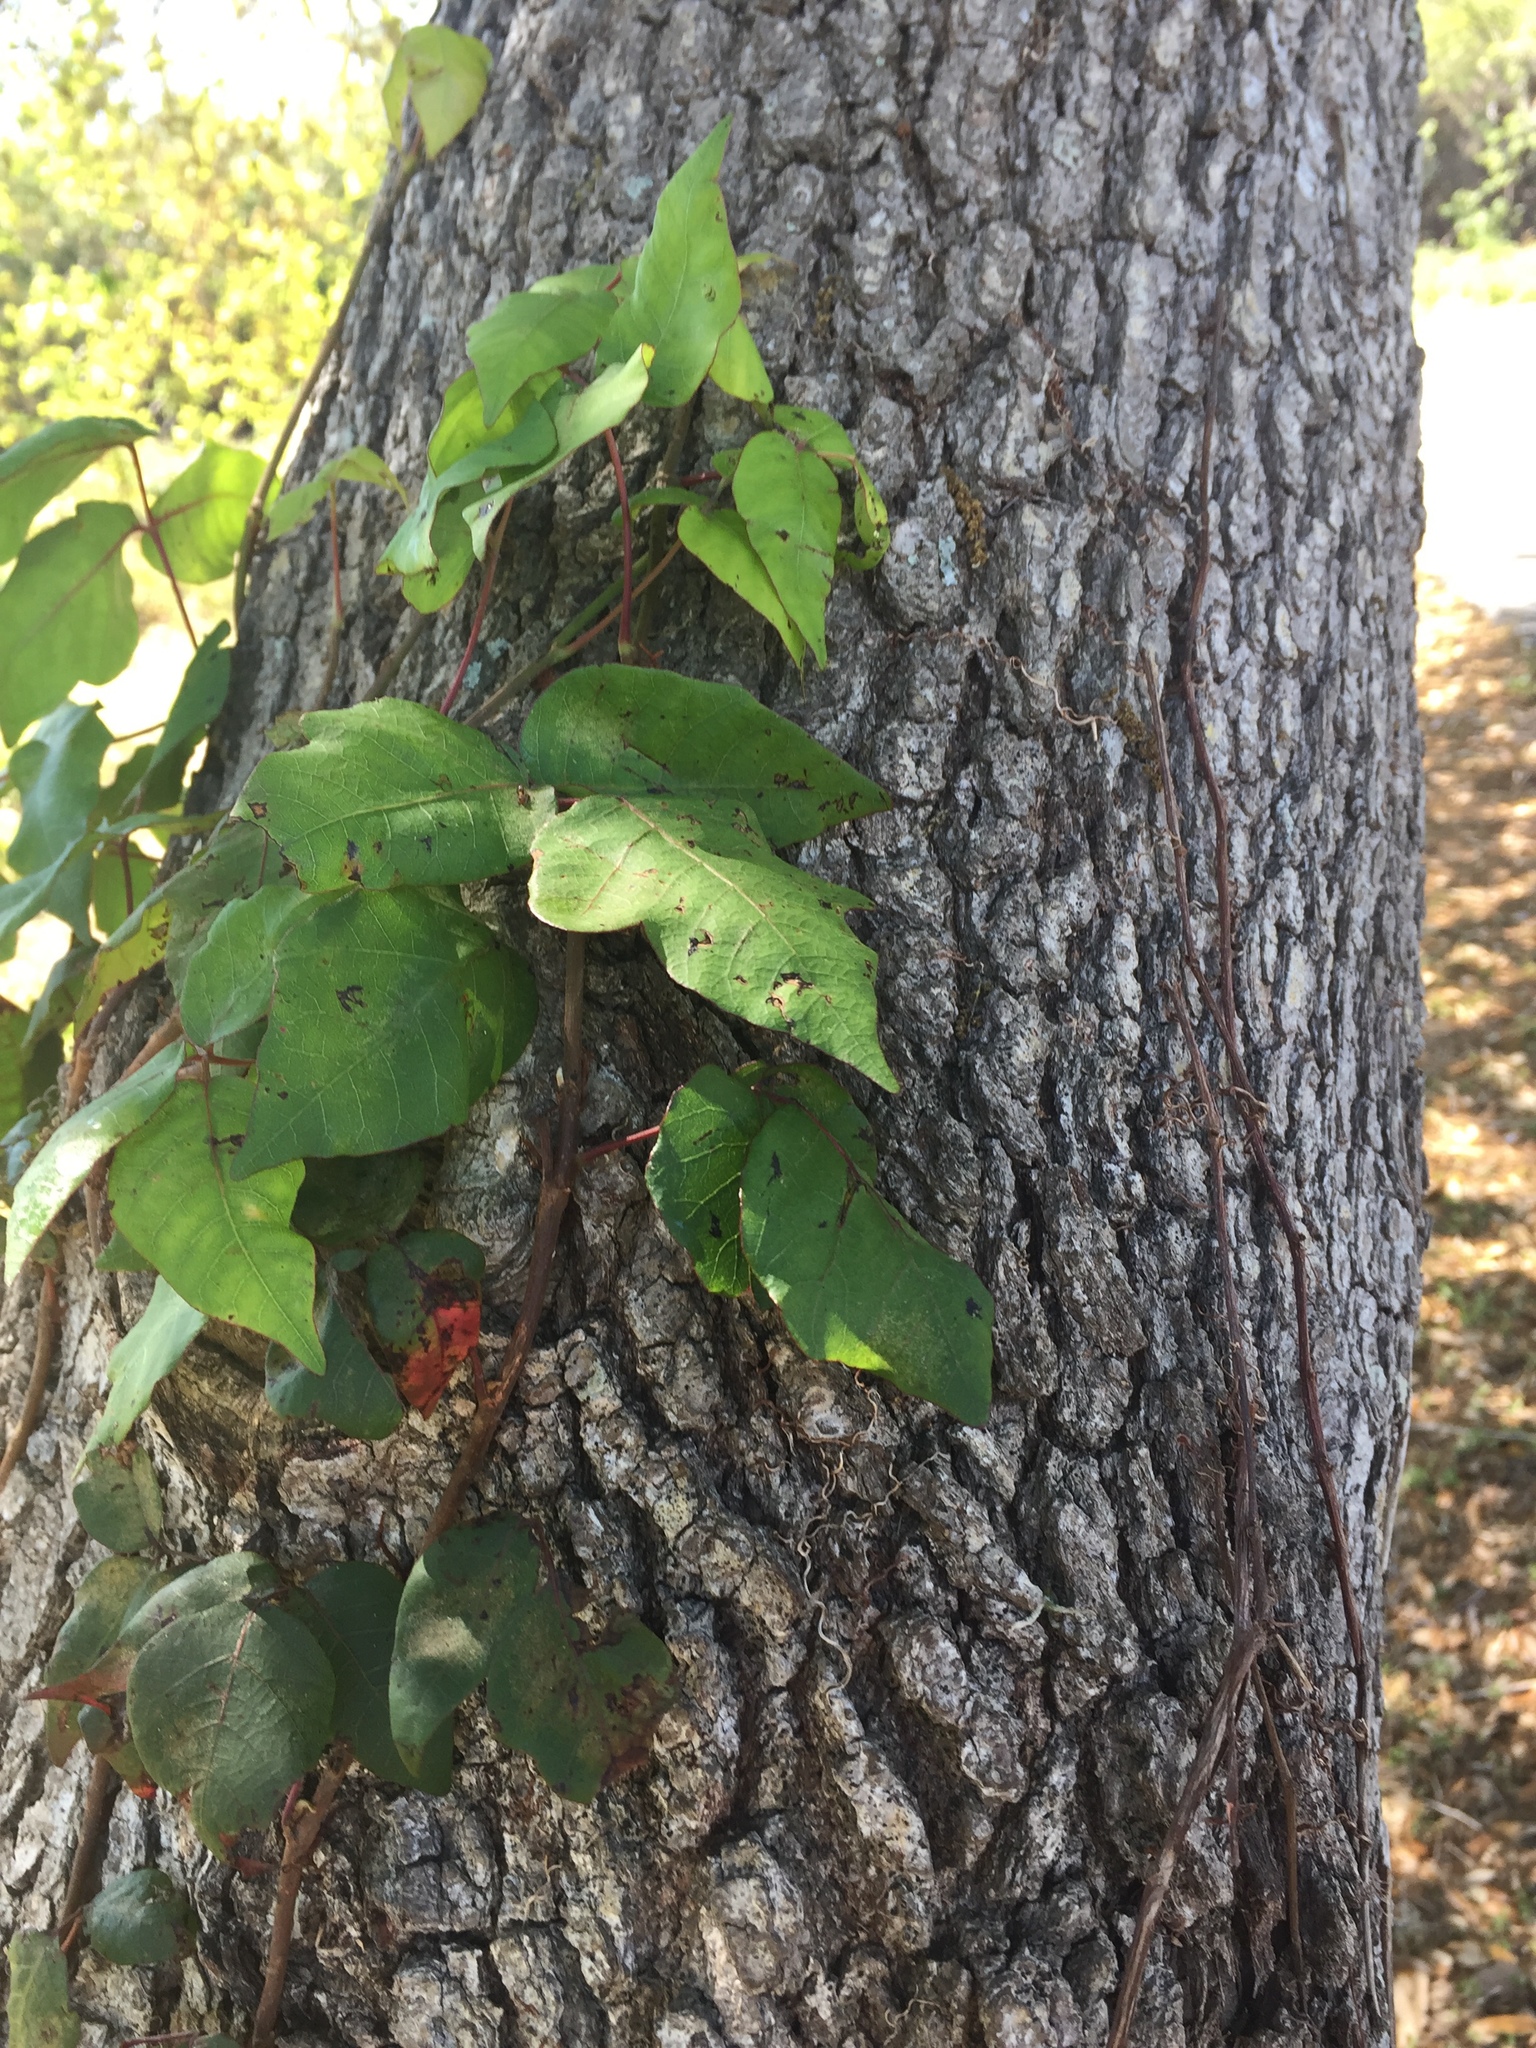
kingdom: Plantae
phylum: Tracheophyta
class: Magnoliopsida
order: Sapindales
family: Anacardiaceae
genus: Toxicodendron
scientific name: Toxicodendron radicans
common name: Poison ivy
